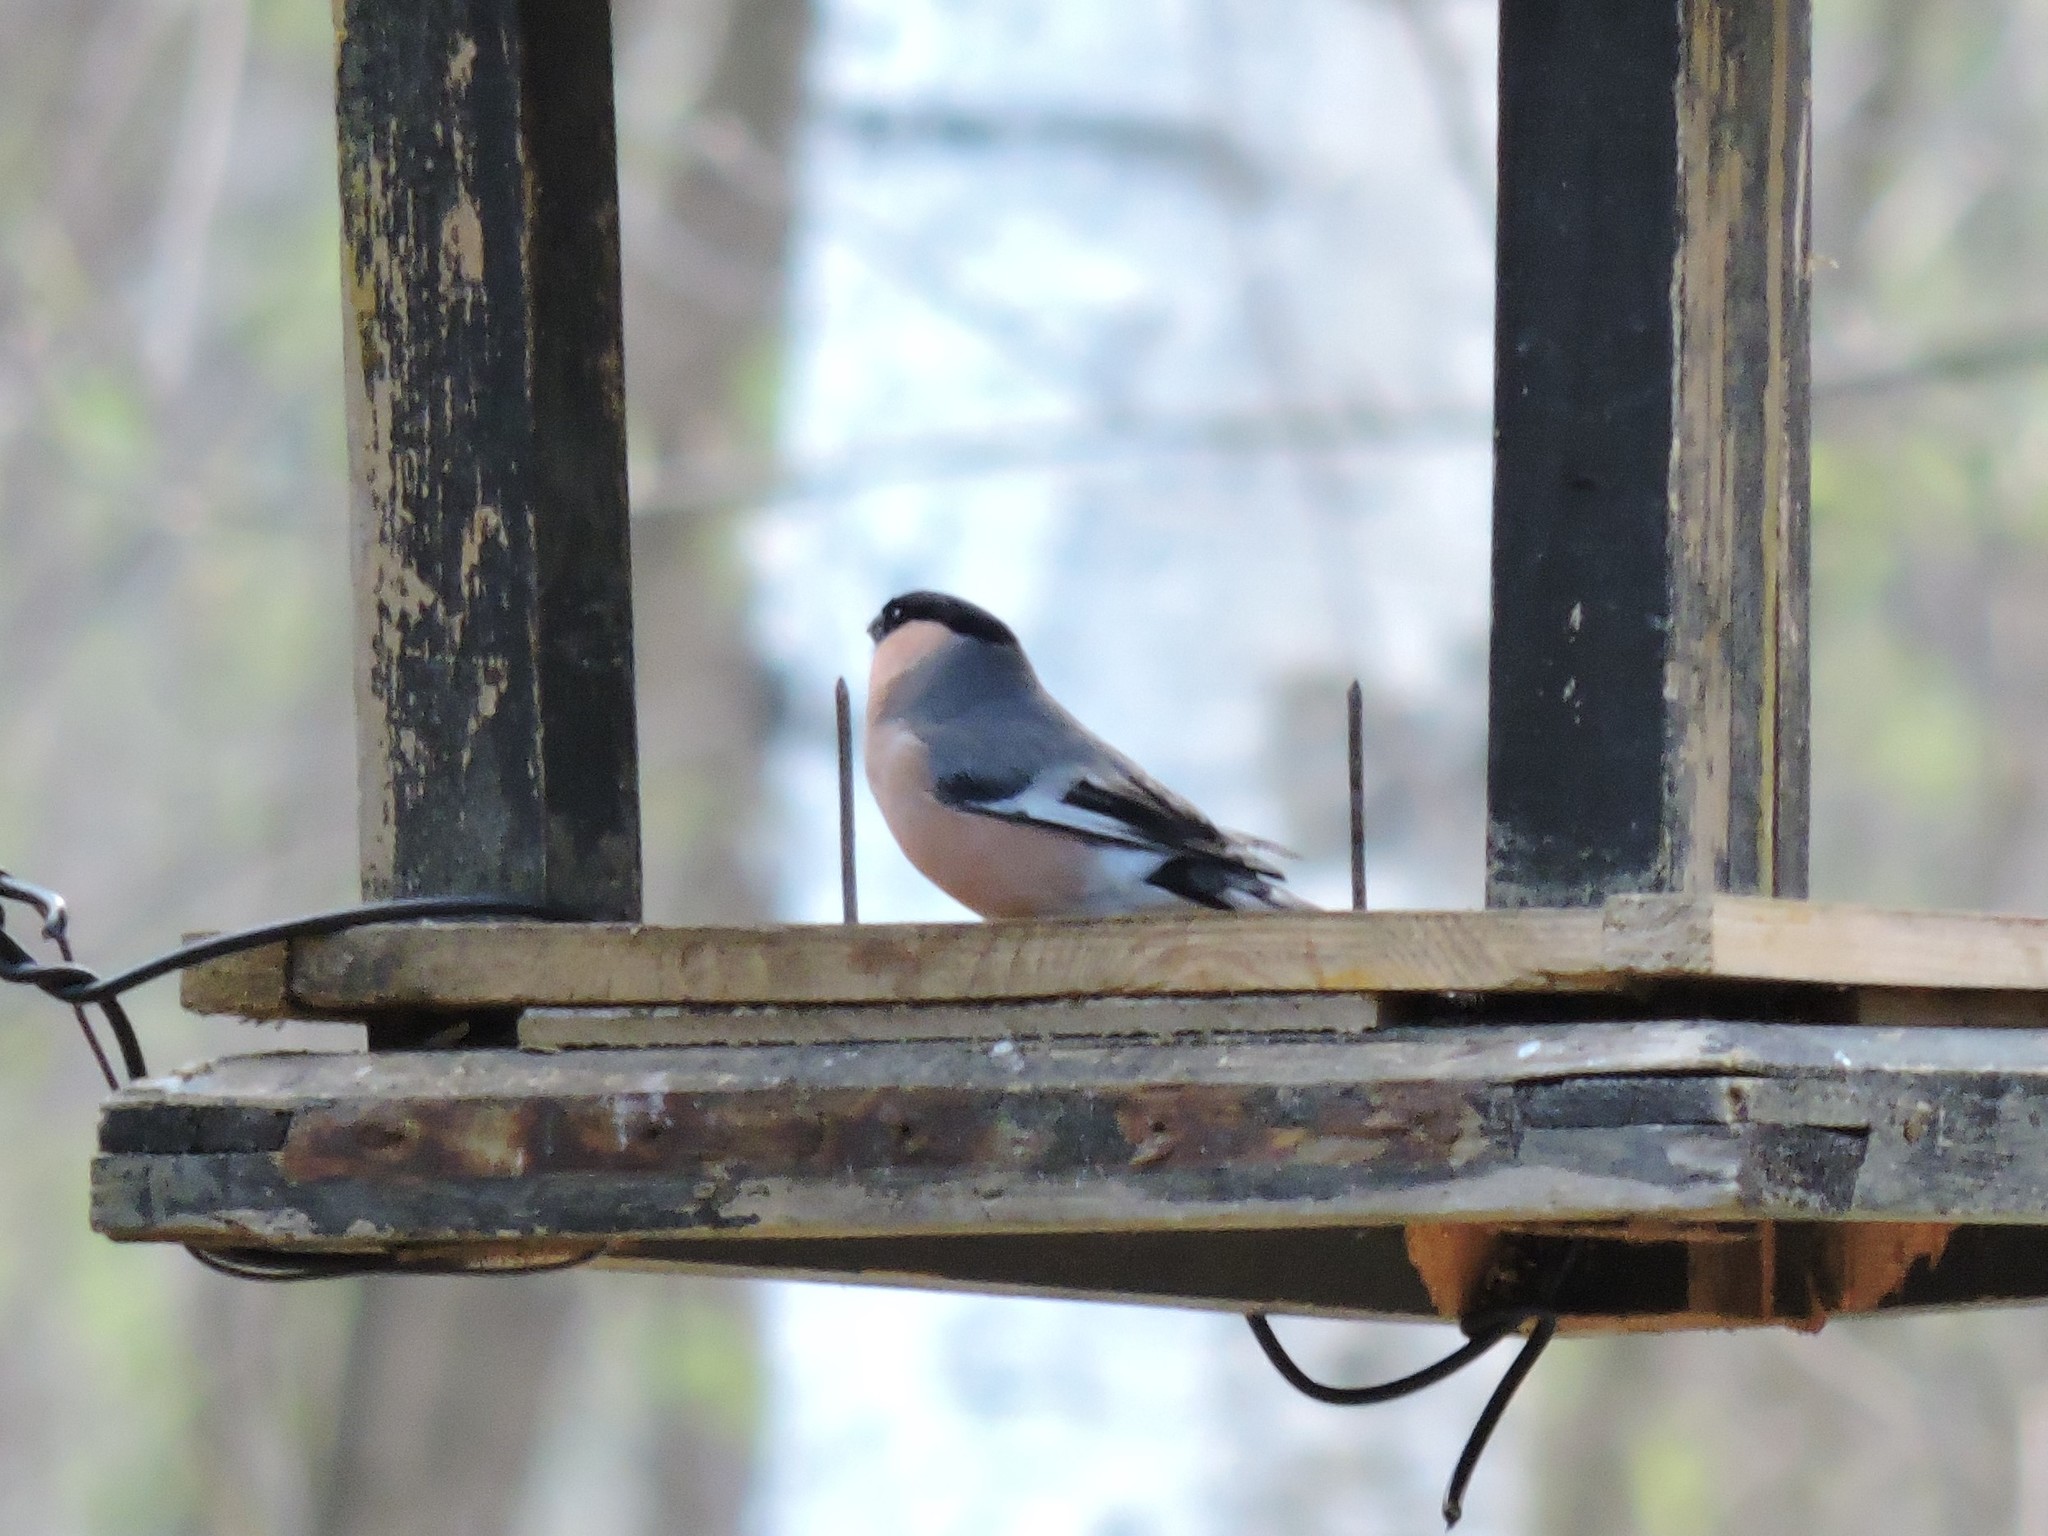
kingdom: Animalia
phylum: Chordata
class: Aves
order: Passeriformes
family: Fringillidae
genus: Pyrrhula
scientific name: Pyrrhula pyrrhula
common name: Eurasian bullfinch
